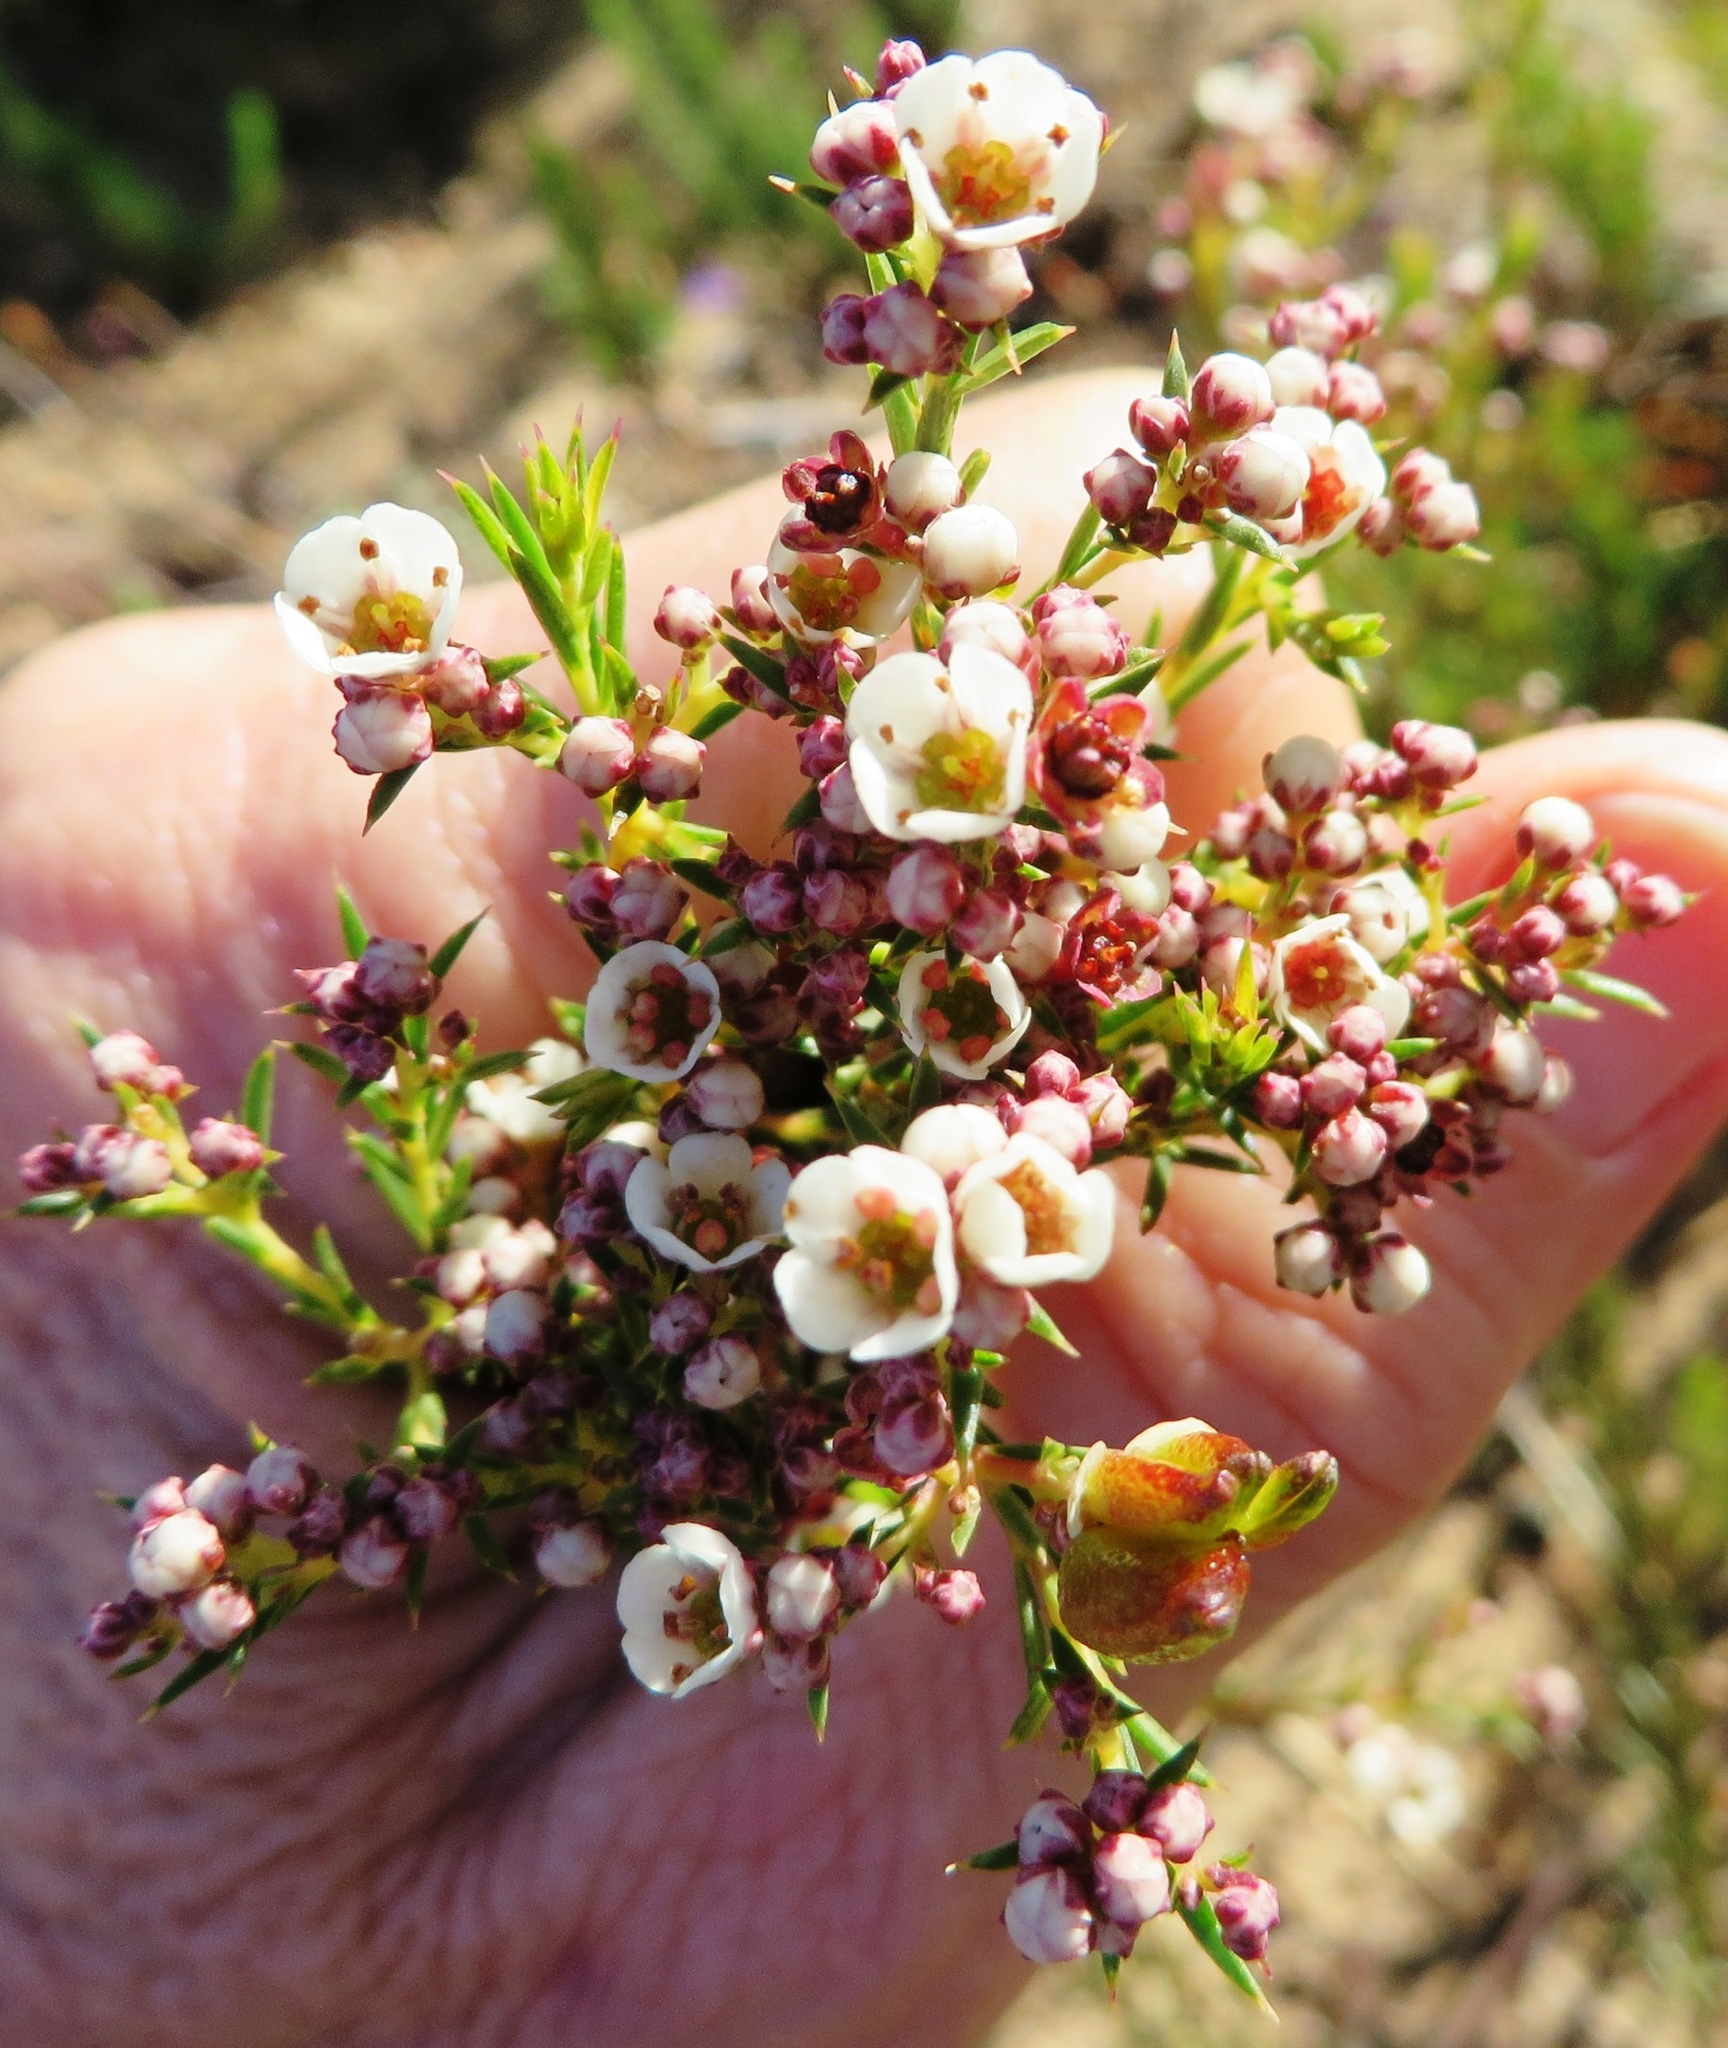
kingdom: Plantae
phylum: Tracheophyta
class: Magnoliopsida
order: Sapindales
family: Rutaceae
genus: Diosma
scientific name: Diosma hirsuta
